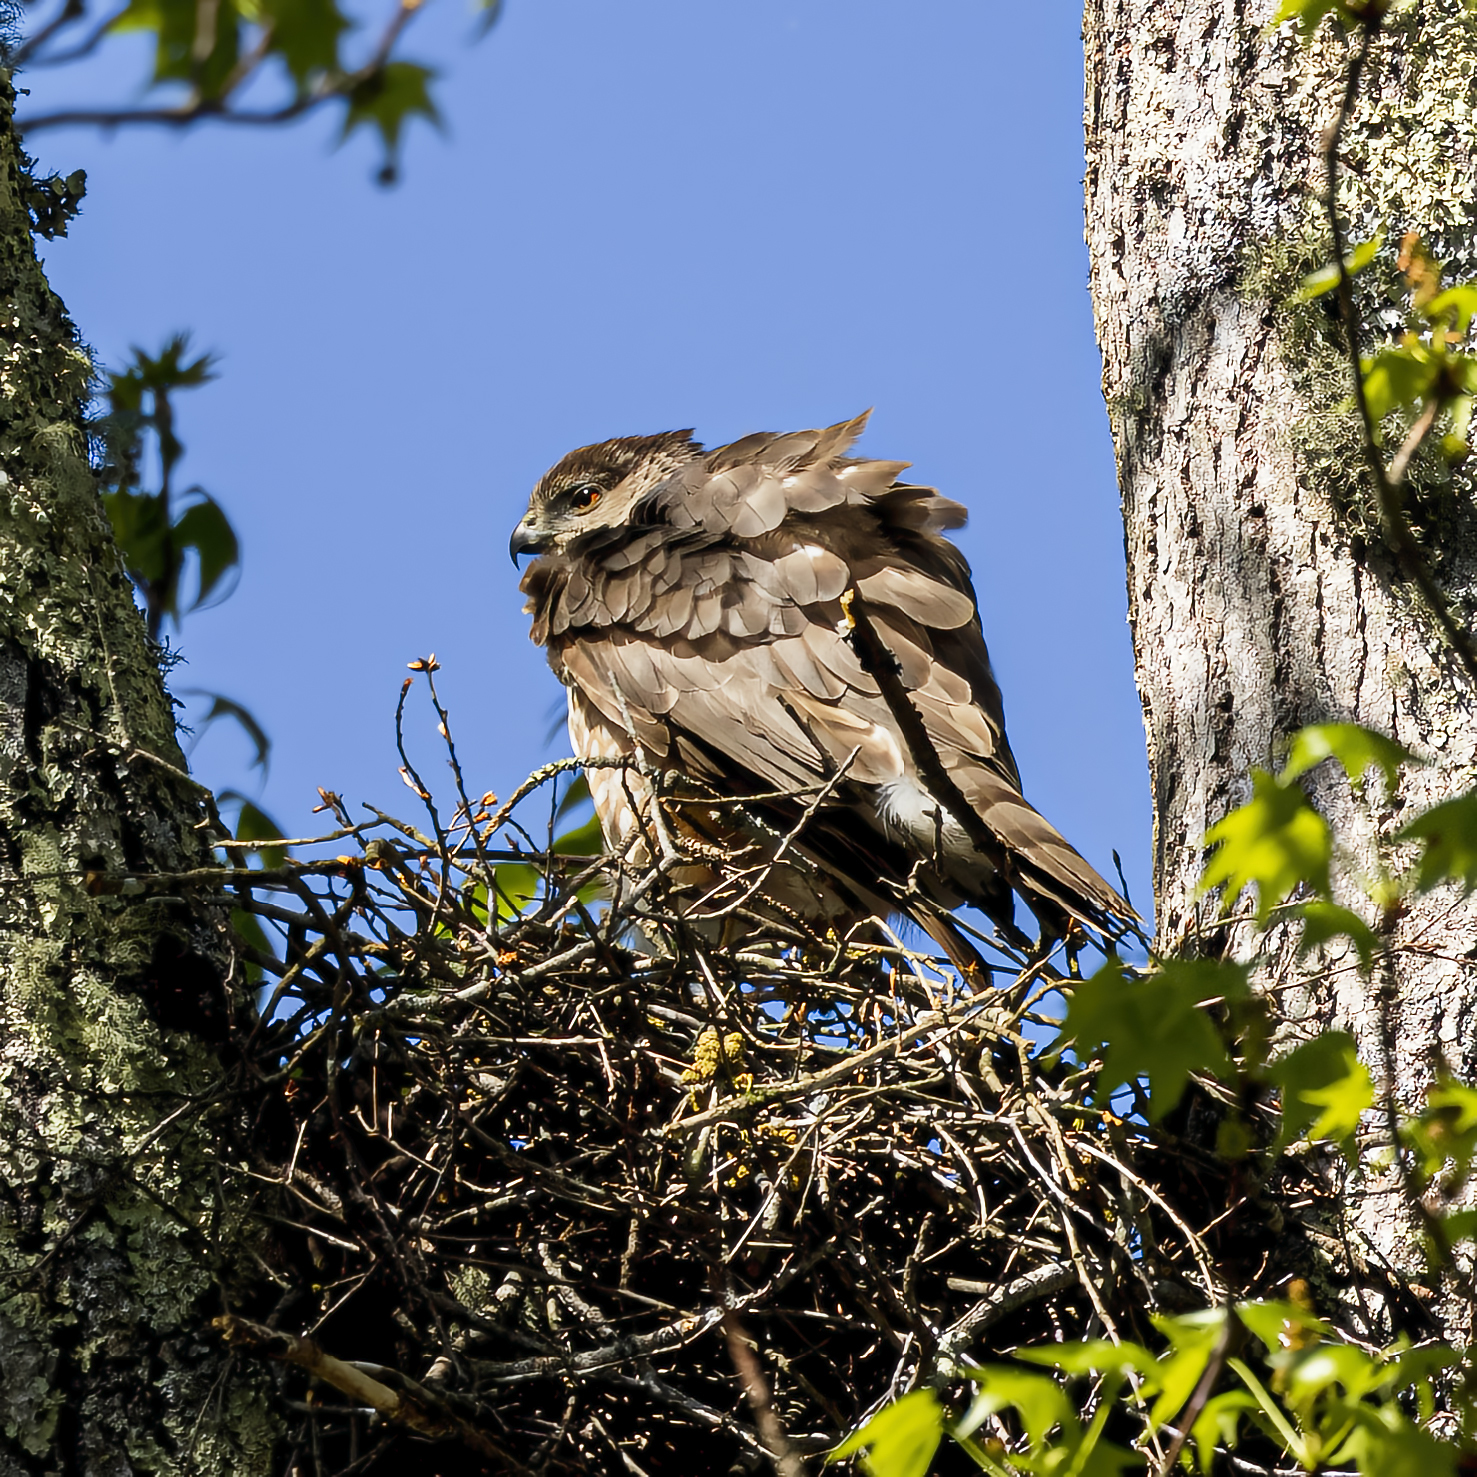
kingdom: Animalia
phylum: Chordata
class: Aves
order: Accipitriformes
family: Accipitridae
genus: Accipiter
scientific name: Accipiter cooperii
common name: Cooper's hawk
